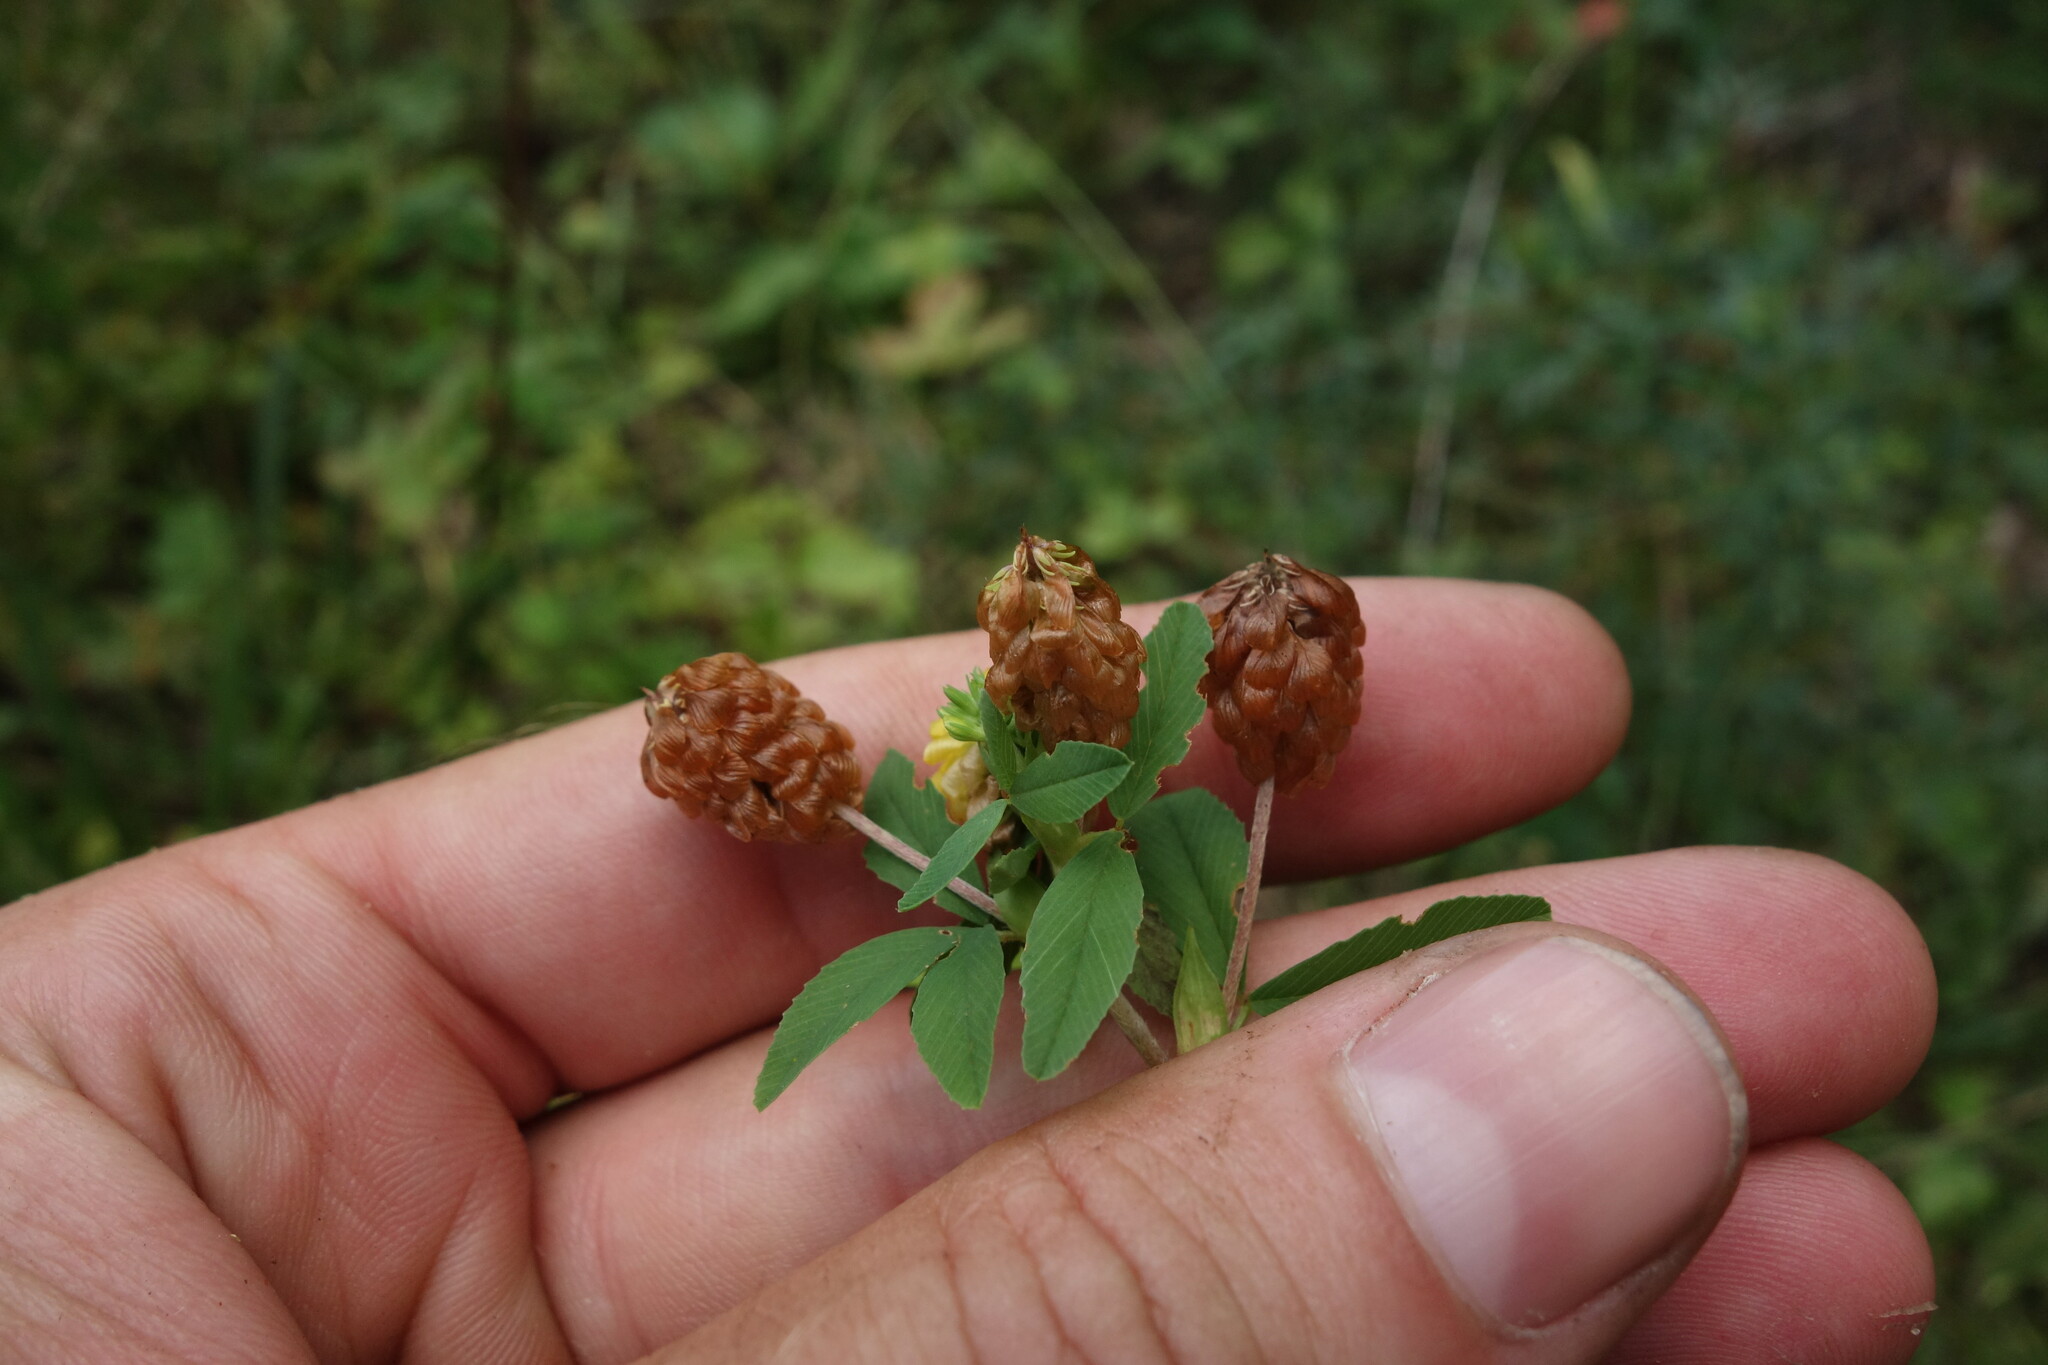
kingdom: Plantae
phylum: Tracheophyta
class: Magnoliopsida
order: Fabales
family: Fabaceae
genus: Trifolium
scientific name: Trifolium aureum
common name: Golden clover
